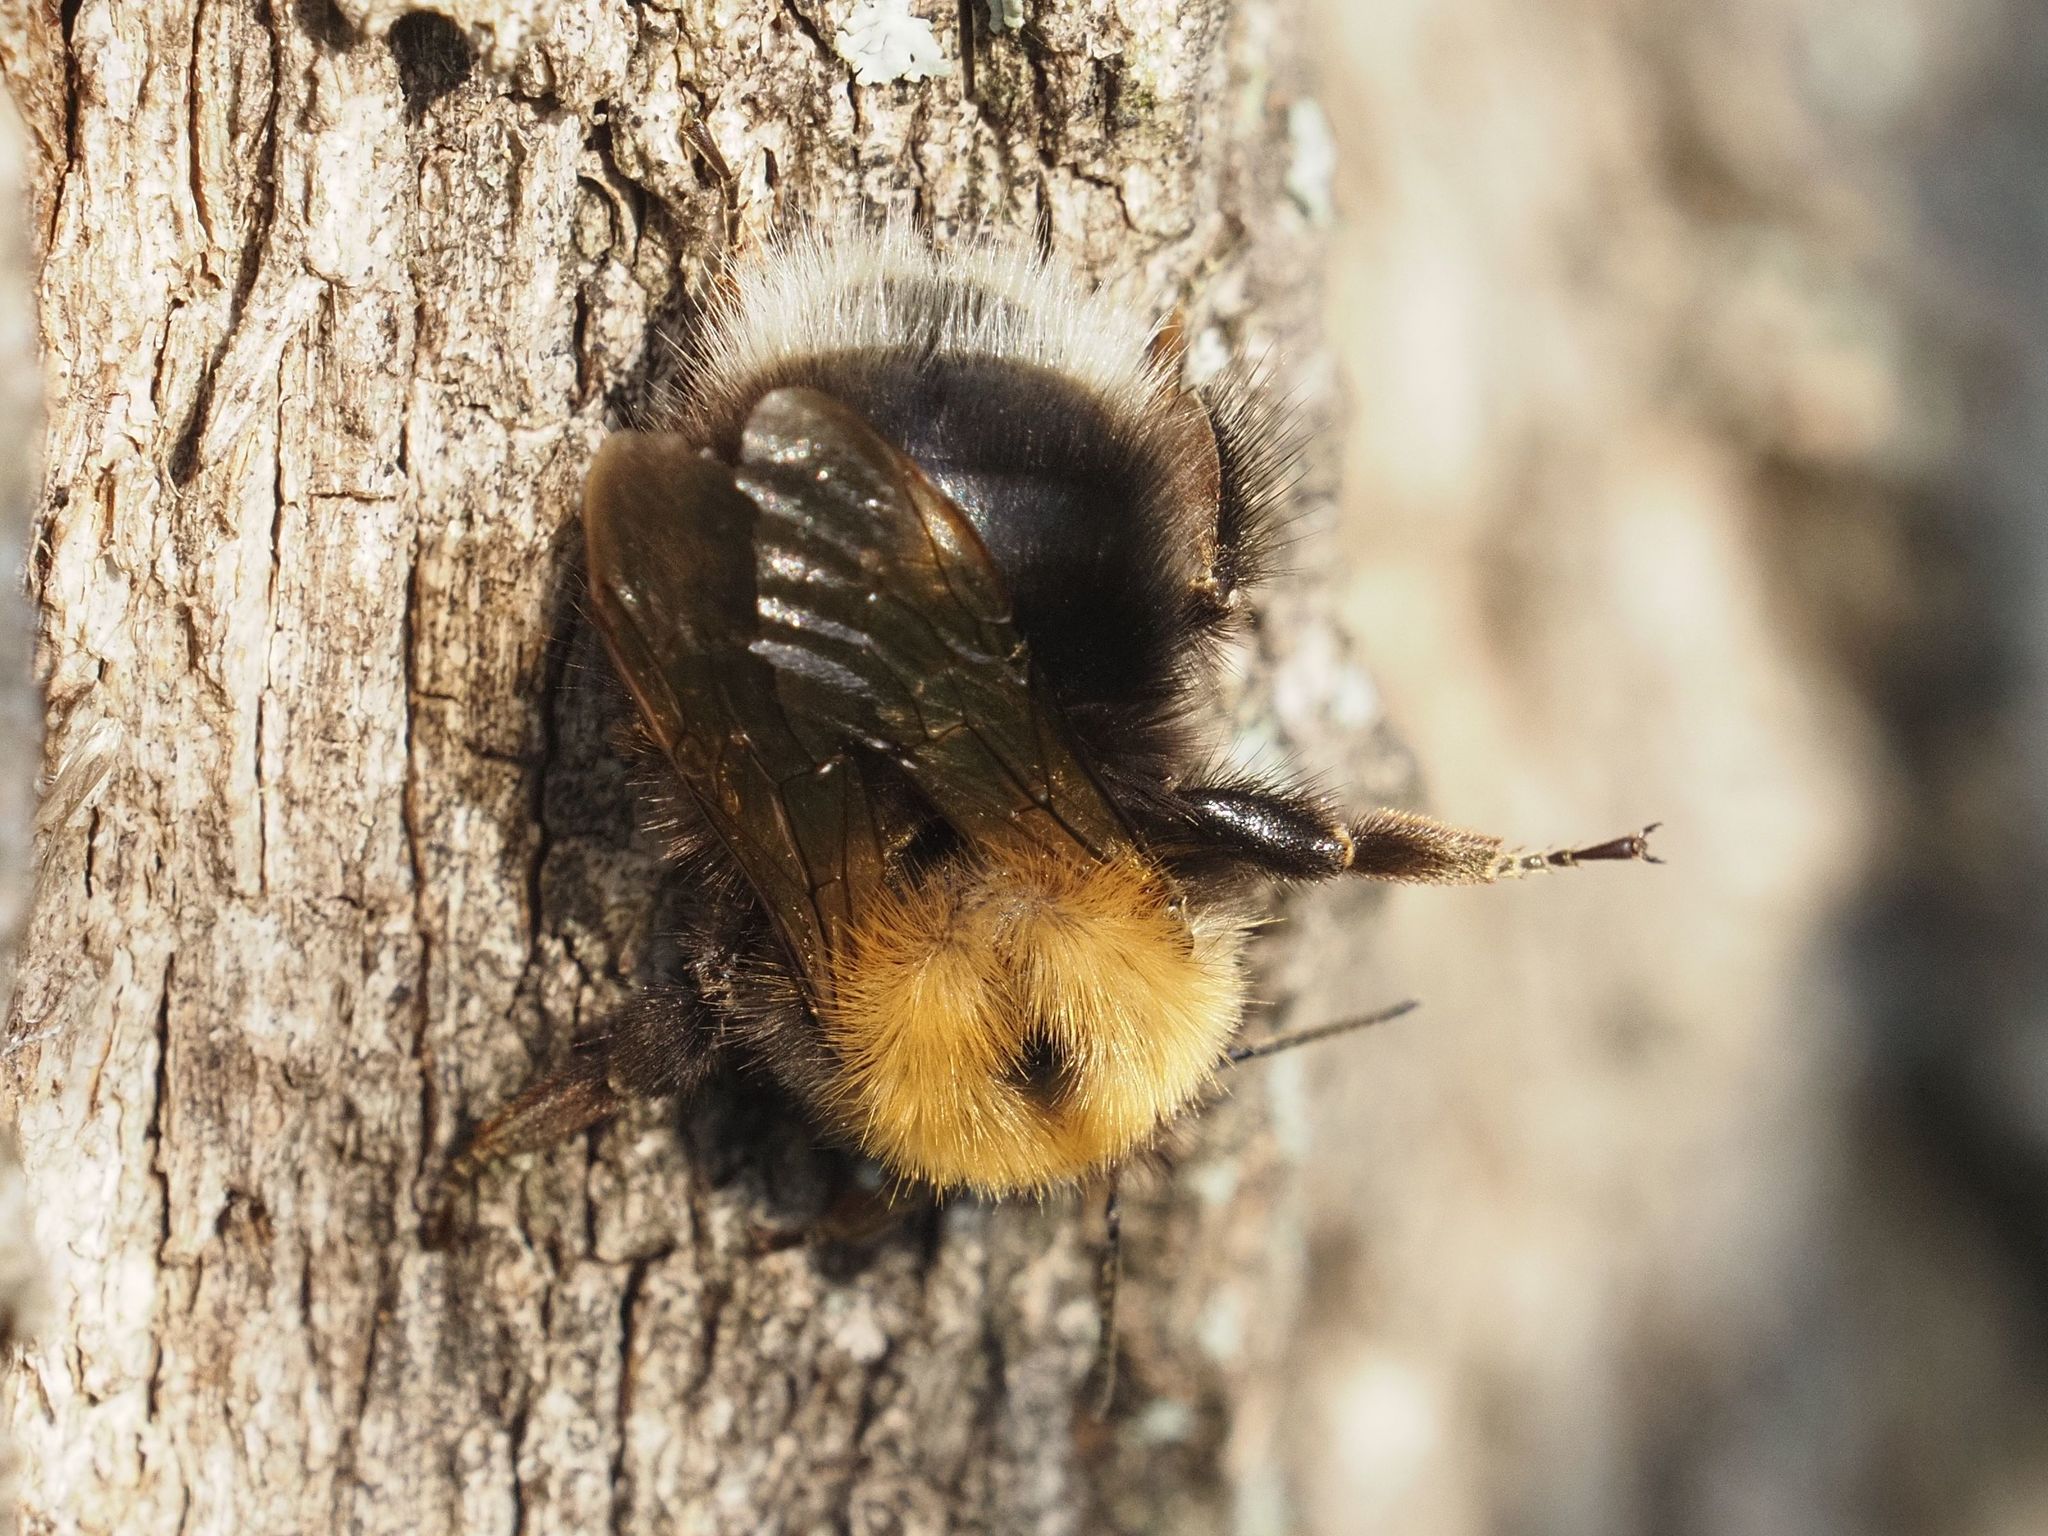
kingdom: Animalia
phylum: Arthropoda
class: Insecta
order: Hymenoptera
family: Apidae
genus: Bombus
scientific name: Bombus hypnorum
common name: New garden bumblebee
